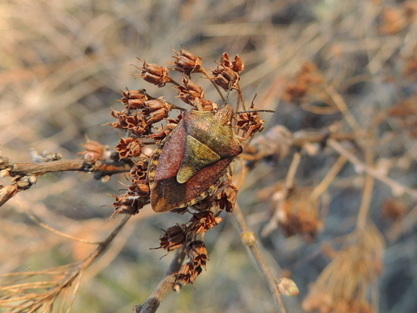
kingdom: Animalia
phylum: Arthropoda
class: Insecta
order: Hemiptera
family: Pentatomidae
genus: Carpocoris
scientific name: Carpocoris purpureipennis
